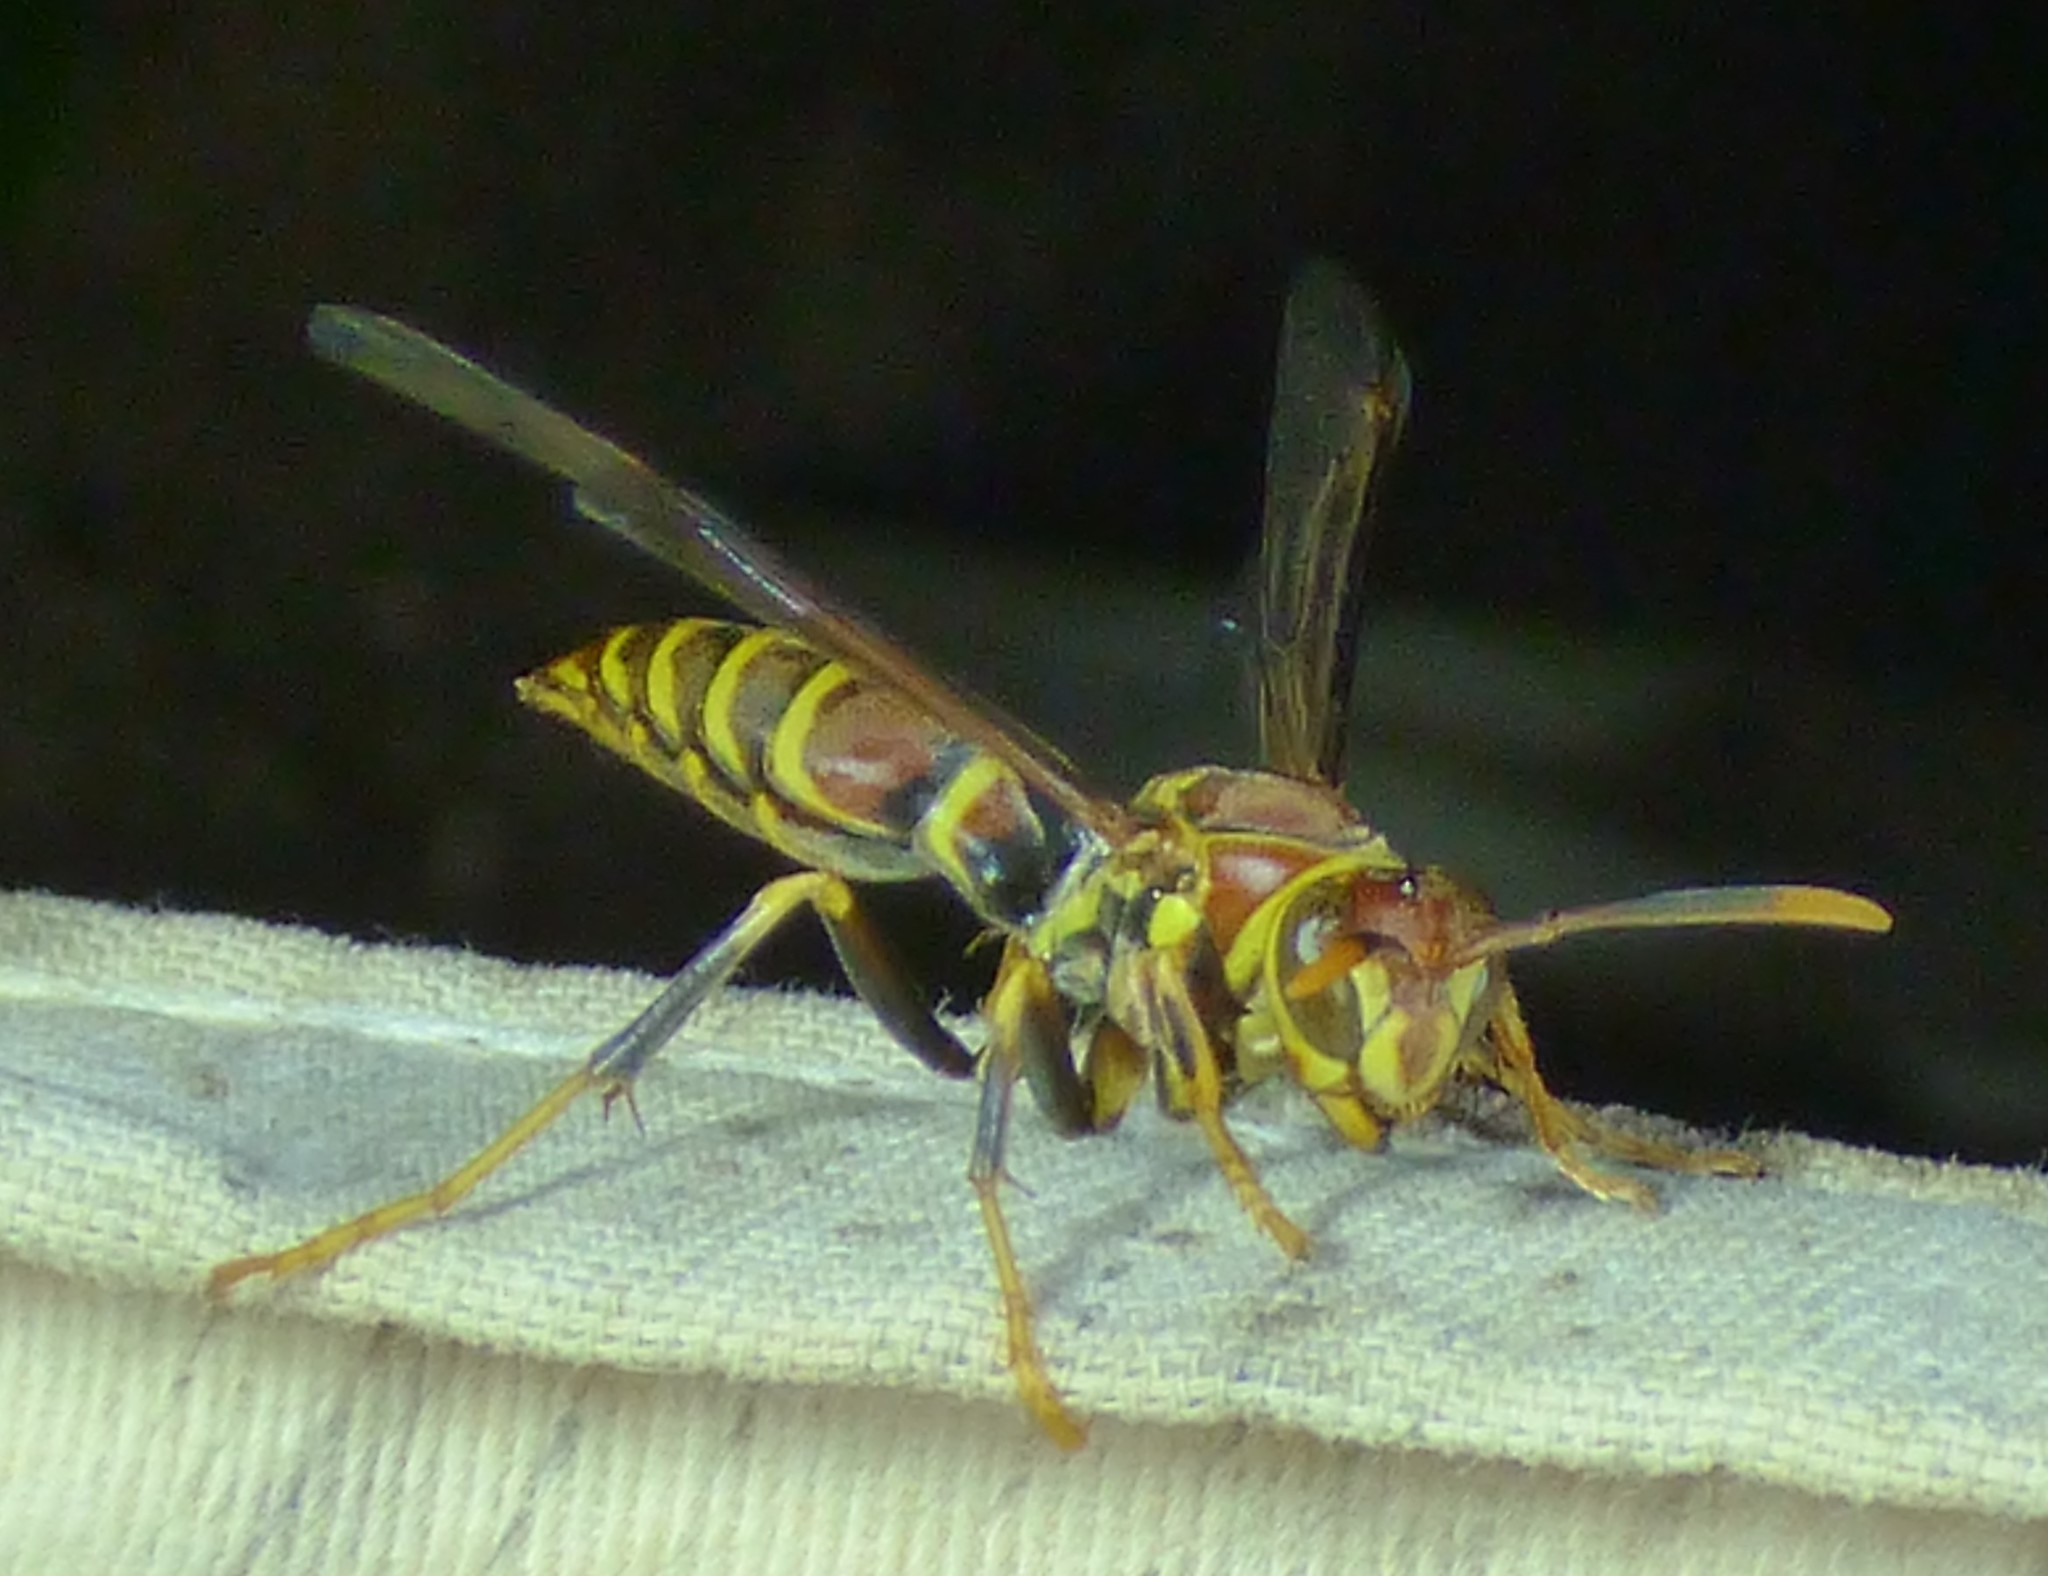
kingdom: Animalia
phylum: Arthropoda
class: Insecta
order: Hymenoptera
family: Eumenidae
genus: Polistes
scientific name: Polistes exclamans
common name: Paper wasp
